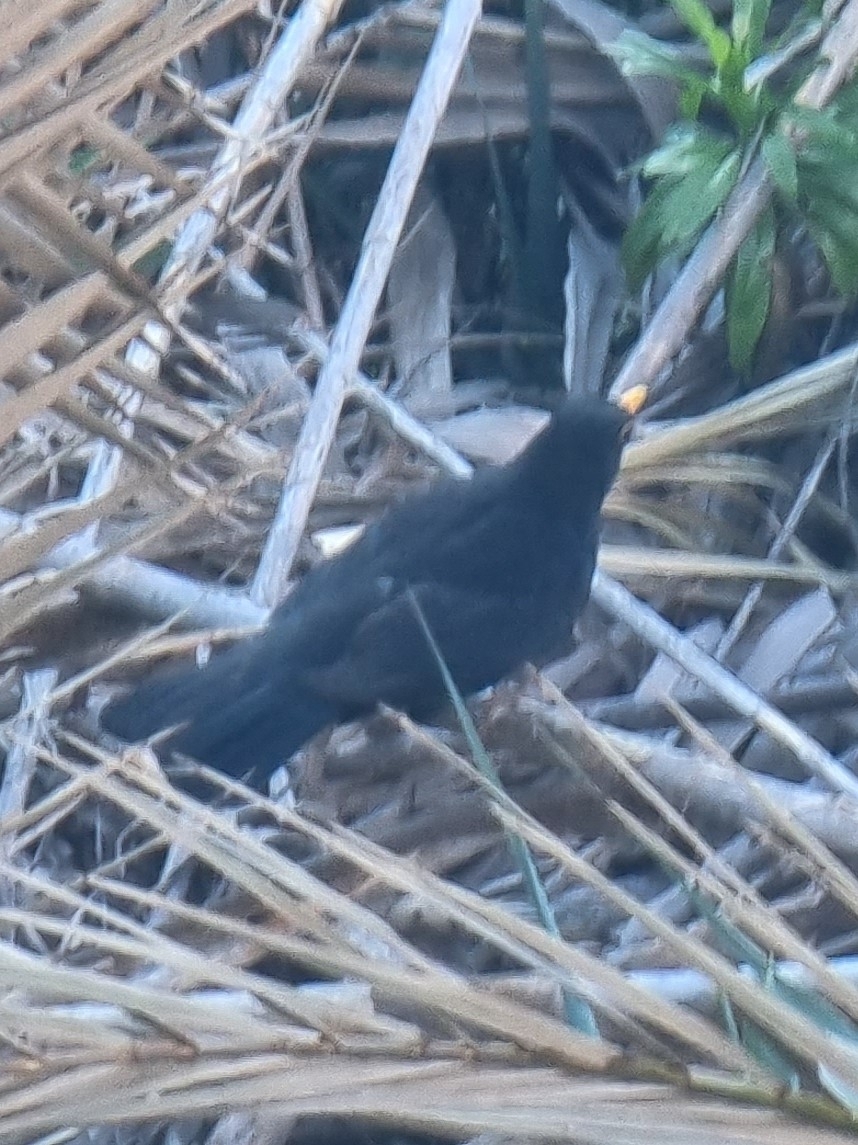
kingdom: Animalia
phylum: Chordata
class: Aves
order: Passeriformes
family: Turdidae
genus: Turdus
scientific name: Turdus merula
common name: Common blackbird
